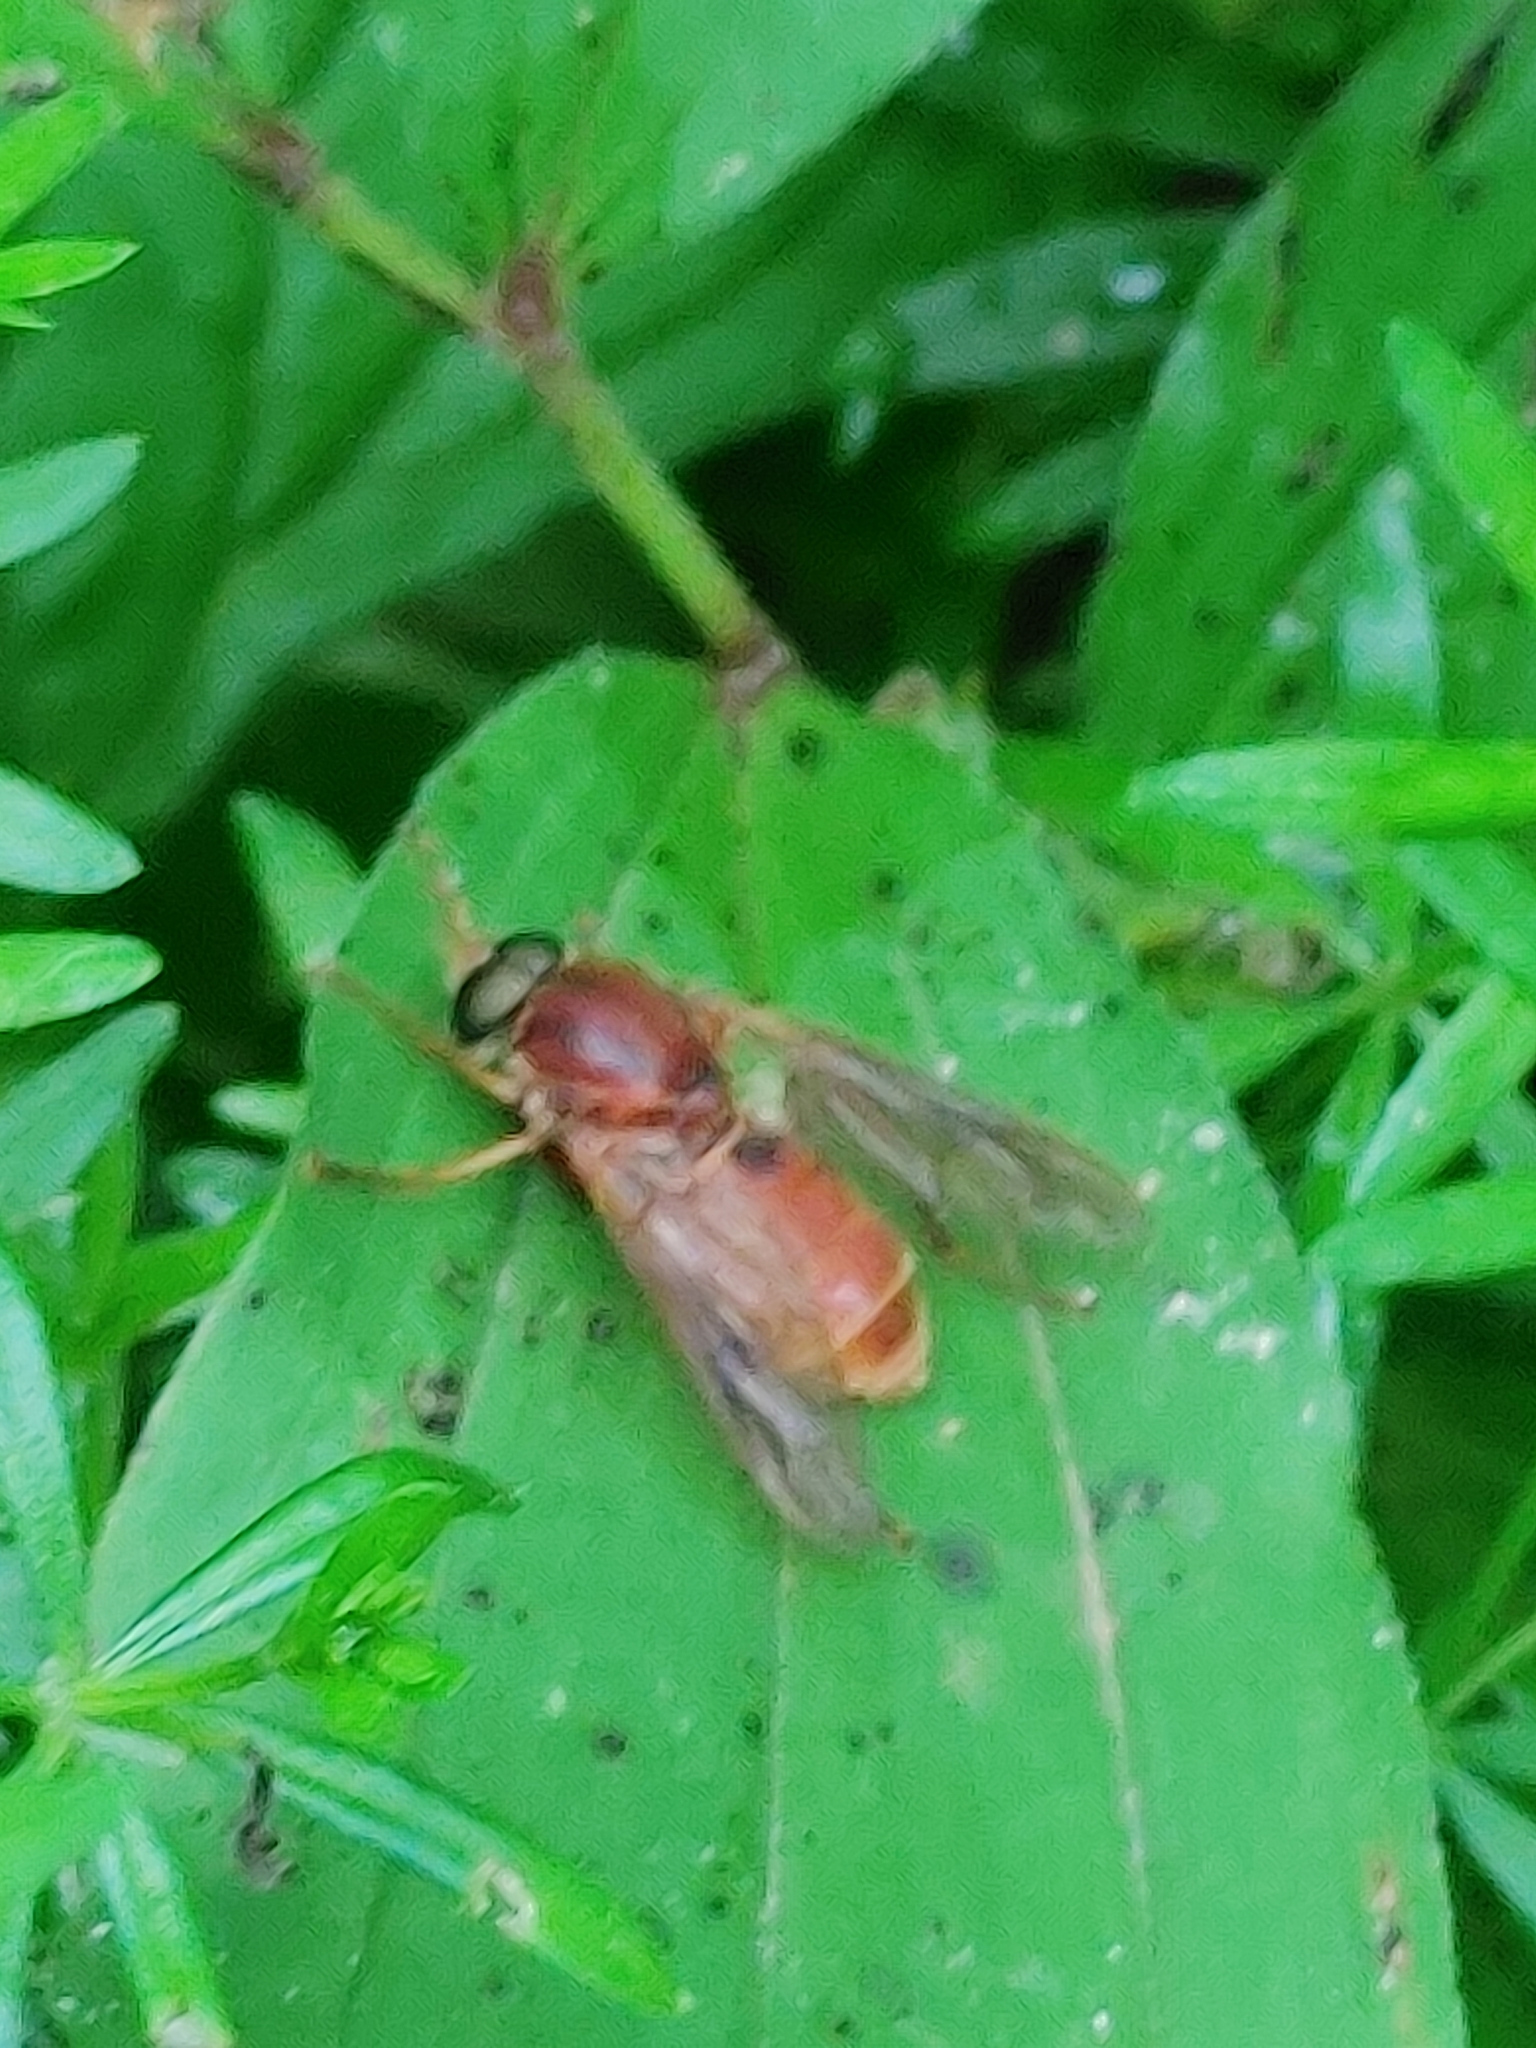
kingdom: Animalia
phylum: Arthropoda
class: Insecta
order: Diptera
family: Xylophagidae
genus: Coenomyia
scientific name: Coenomyia ferruginea
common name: Stink fly
